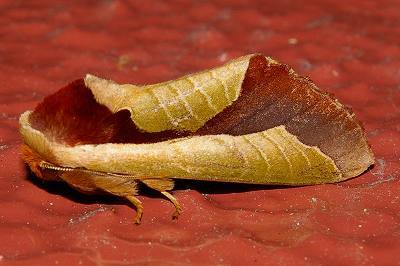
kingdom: Animalia
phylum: Arthropoda
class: Insecta
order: Lepidoptera
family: Notodontidae
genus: Uropyia
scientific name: Uropyia meticulodina
